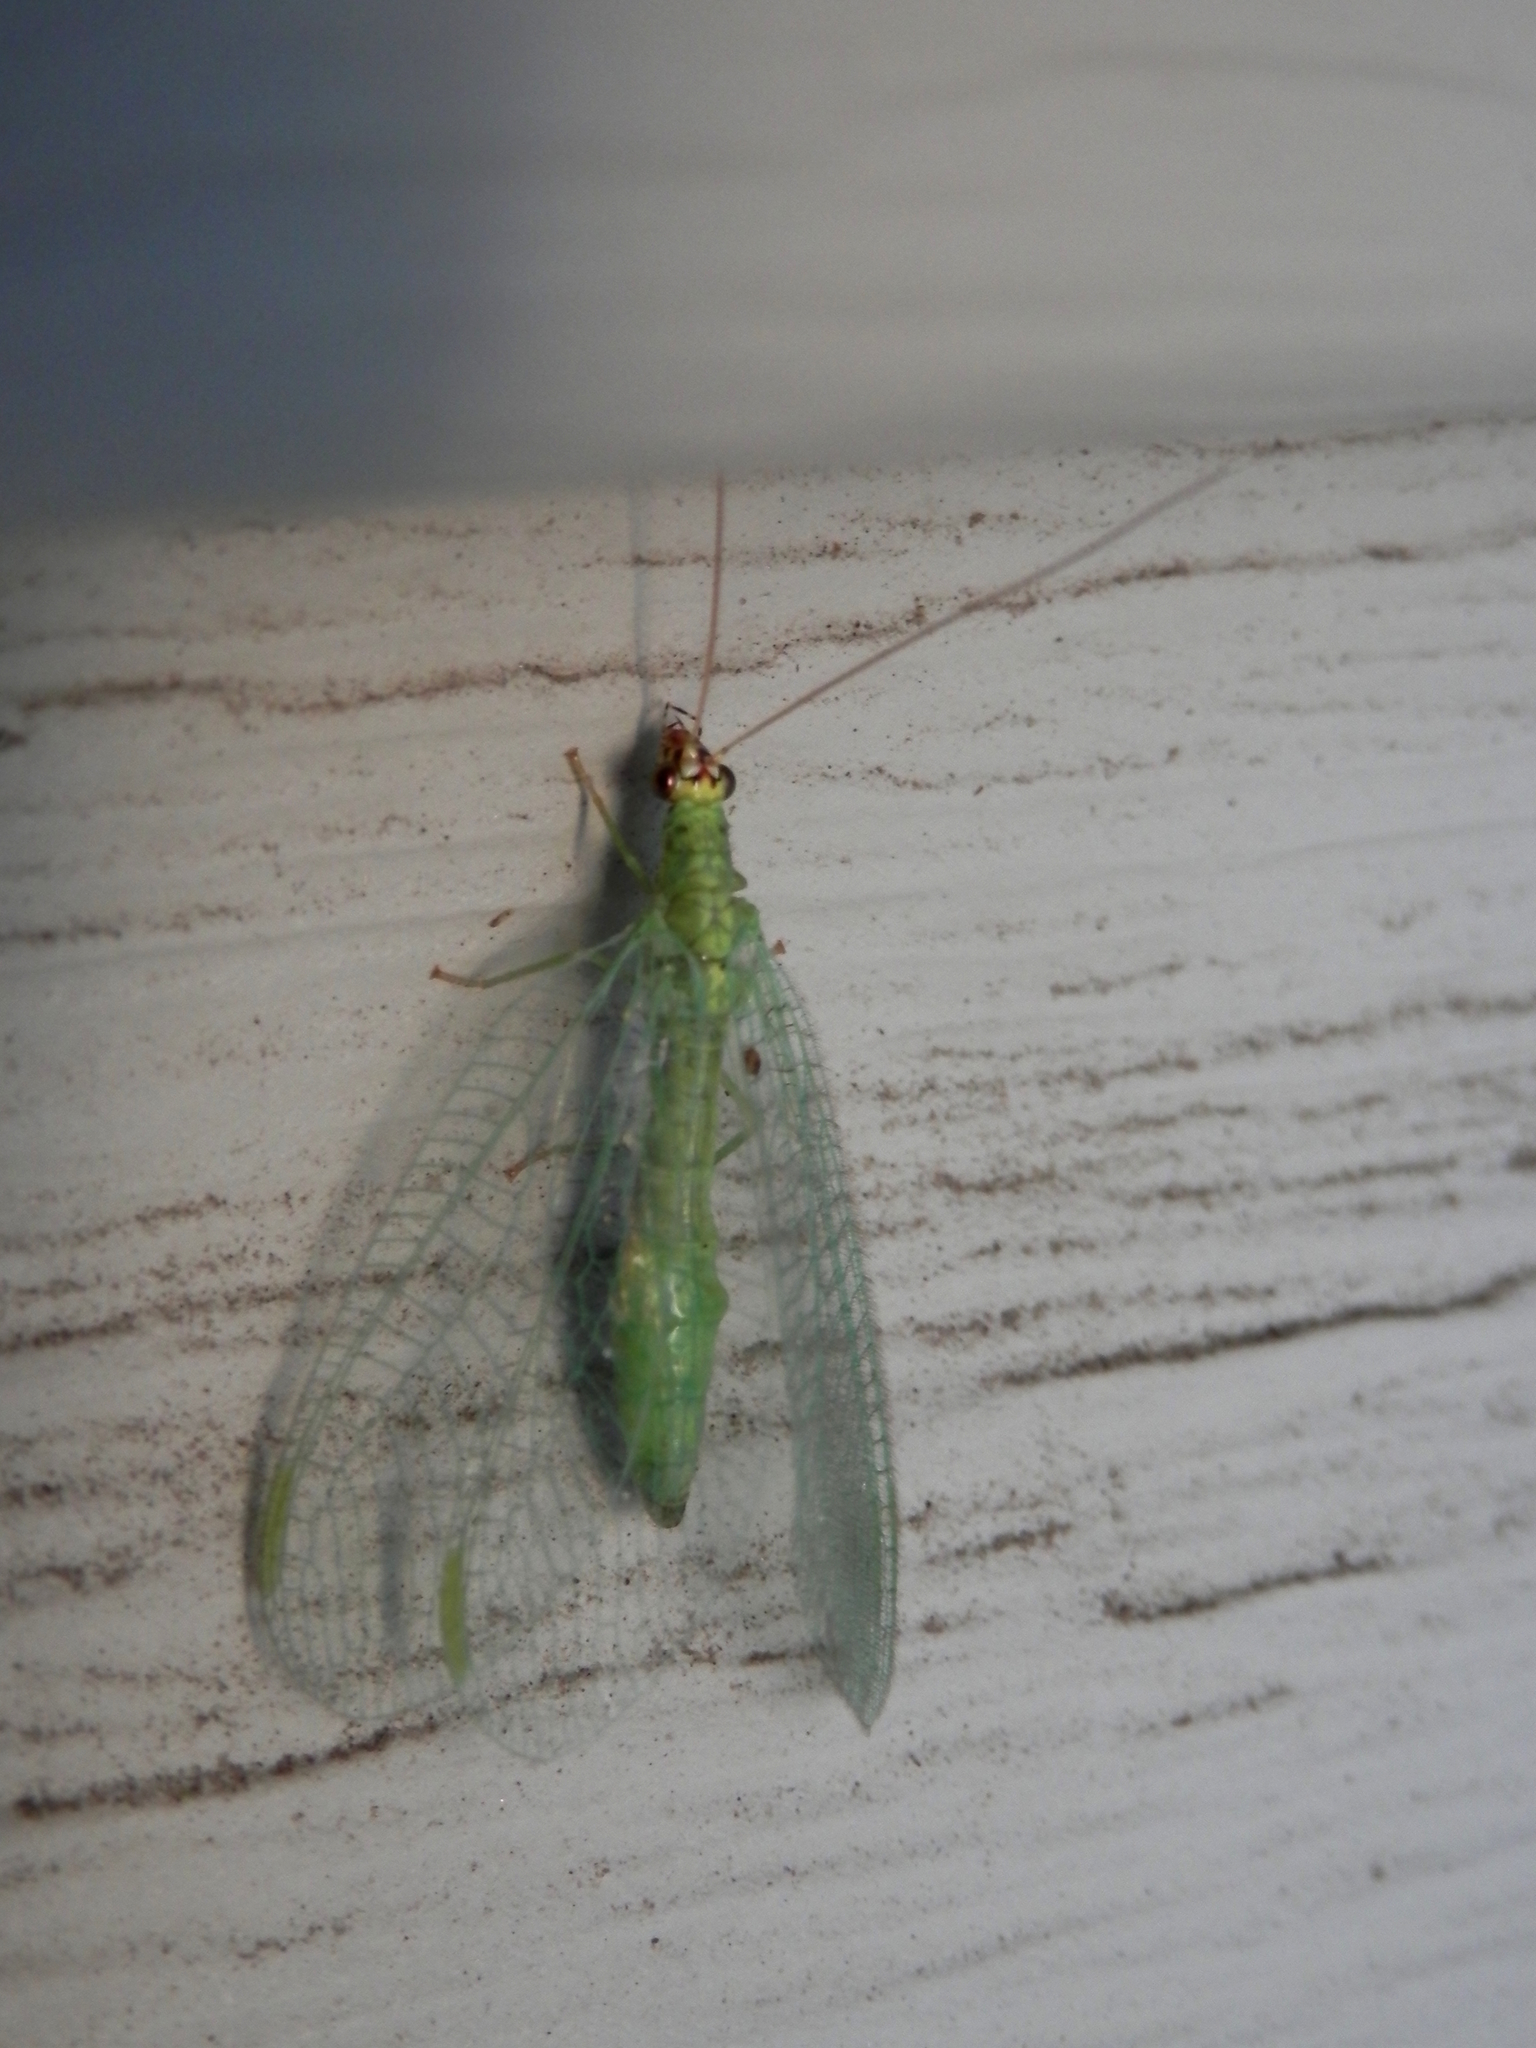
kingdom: Animalia
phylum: Arthropoda
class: Insecta
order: Neuroptera
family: Chrysopidae
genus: Chrysopa
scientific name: Chrysopa oculata
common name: Golden-eyed lacewing
